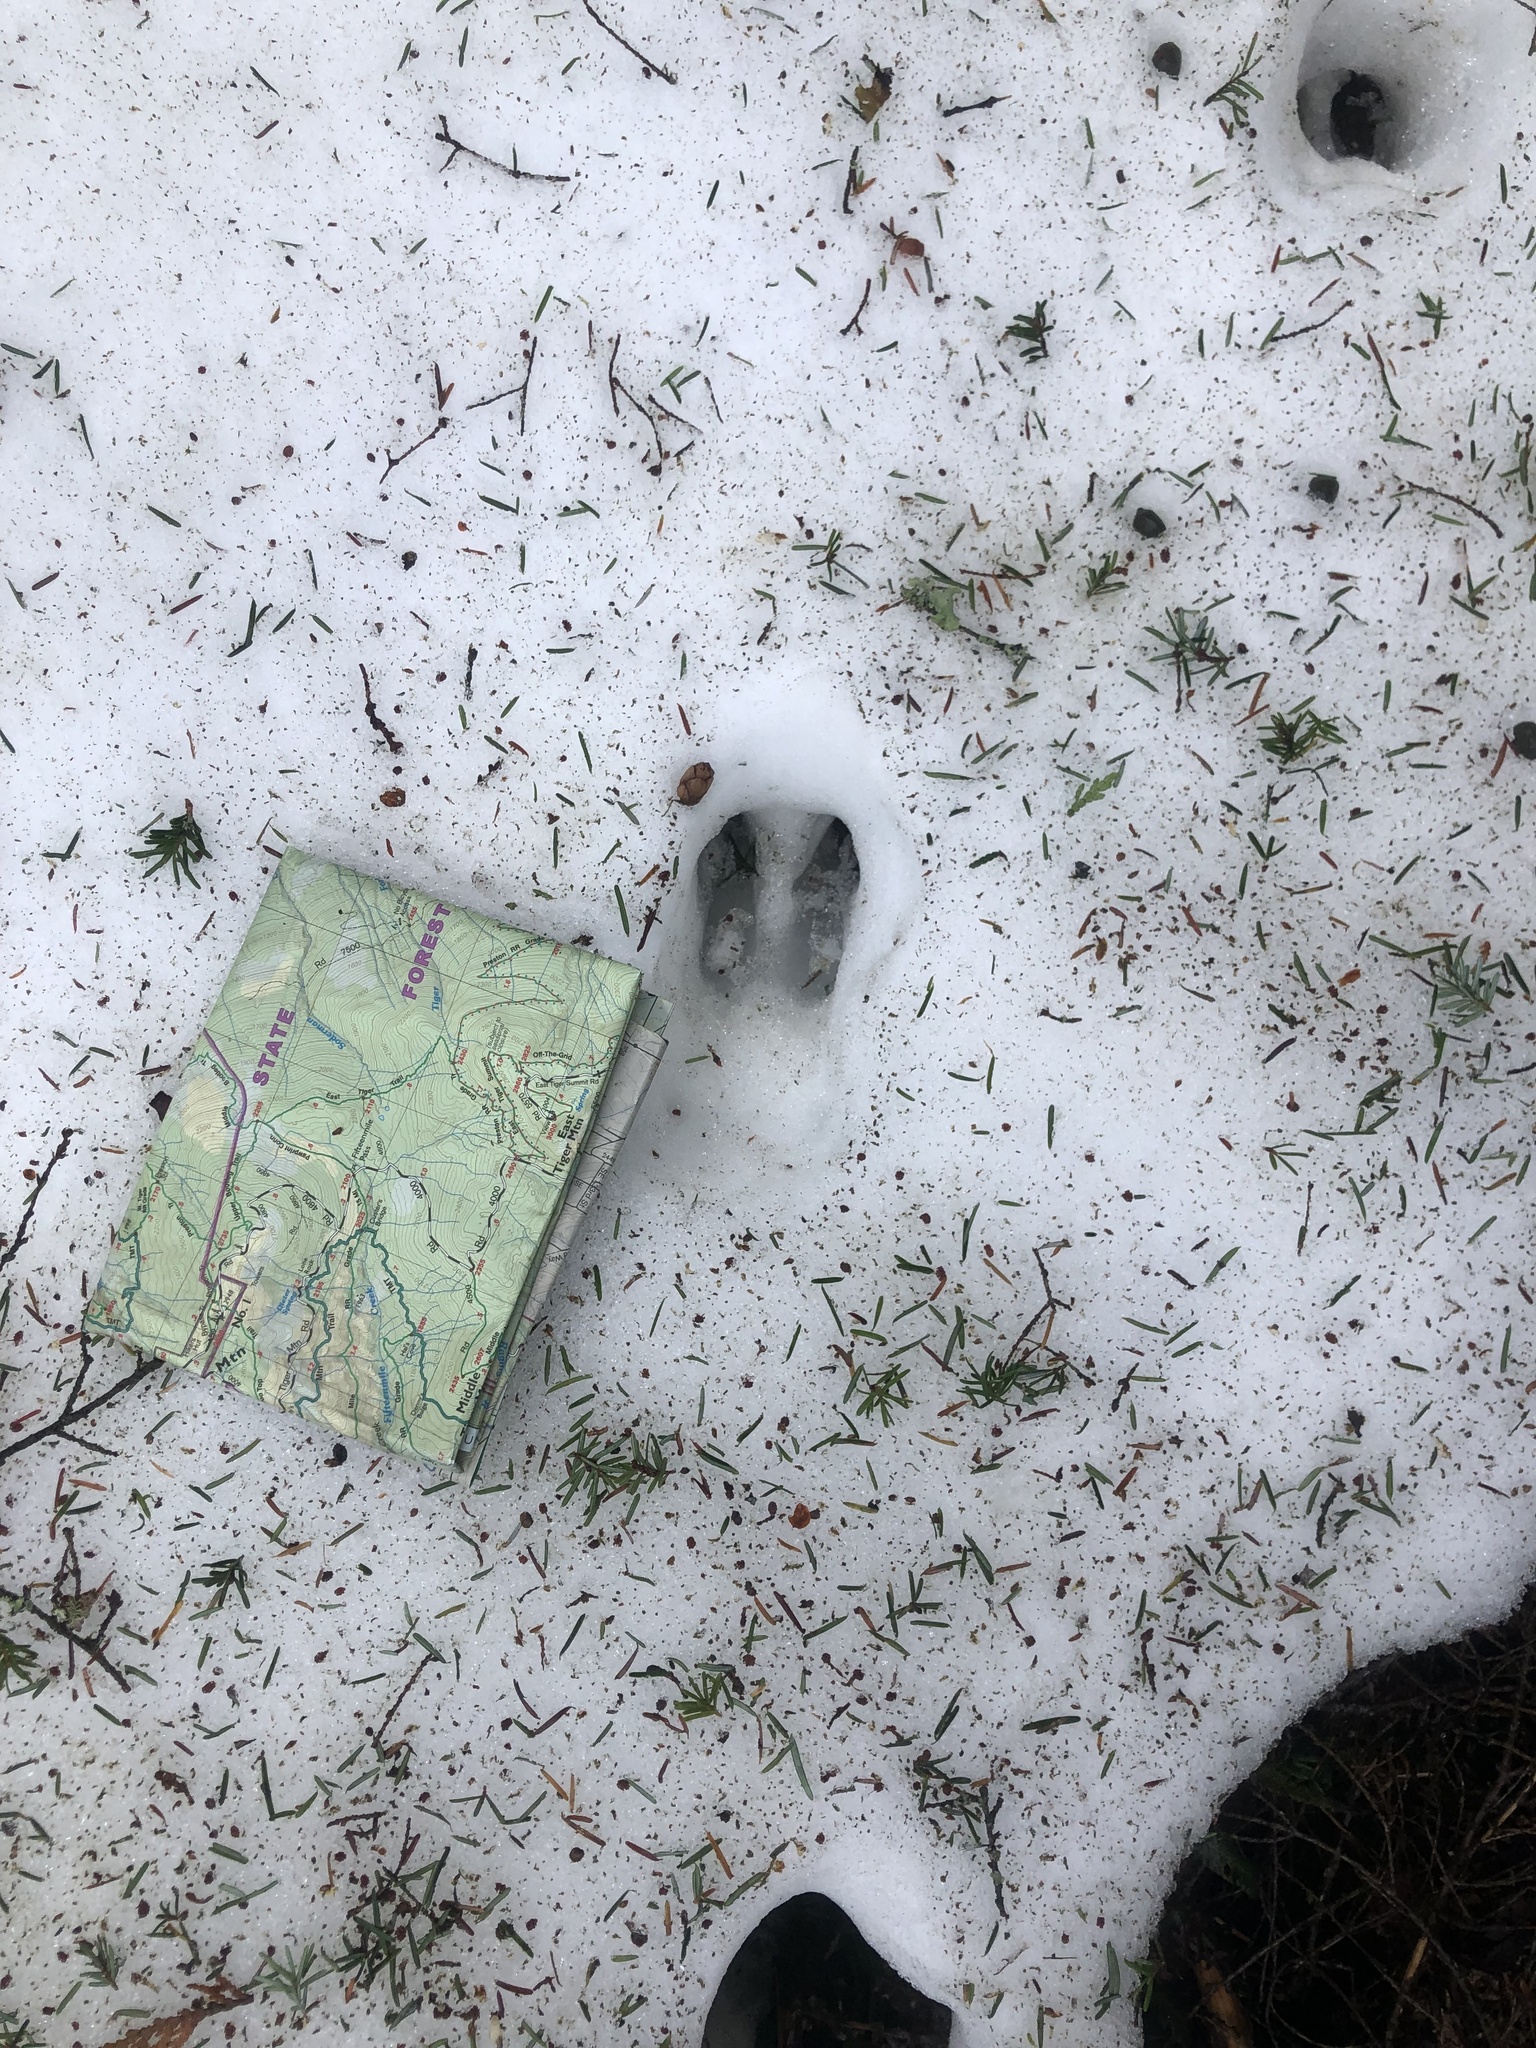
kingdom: Animalia
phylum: Chordata
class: Mammalia
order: Artiodactyla
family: Cervidae
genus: Odocoileus
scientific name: Odocoileus hemionus
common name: Mule deer
